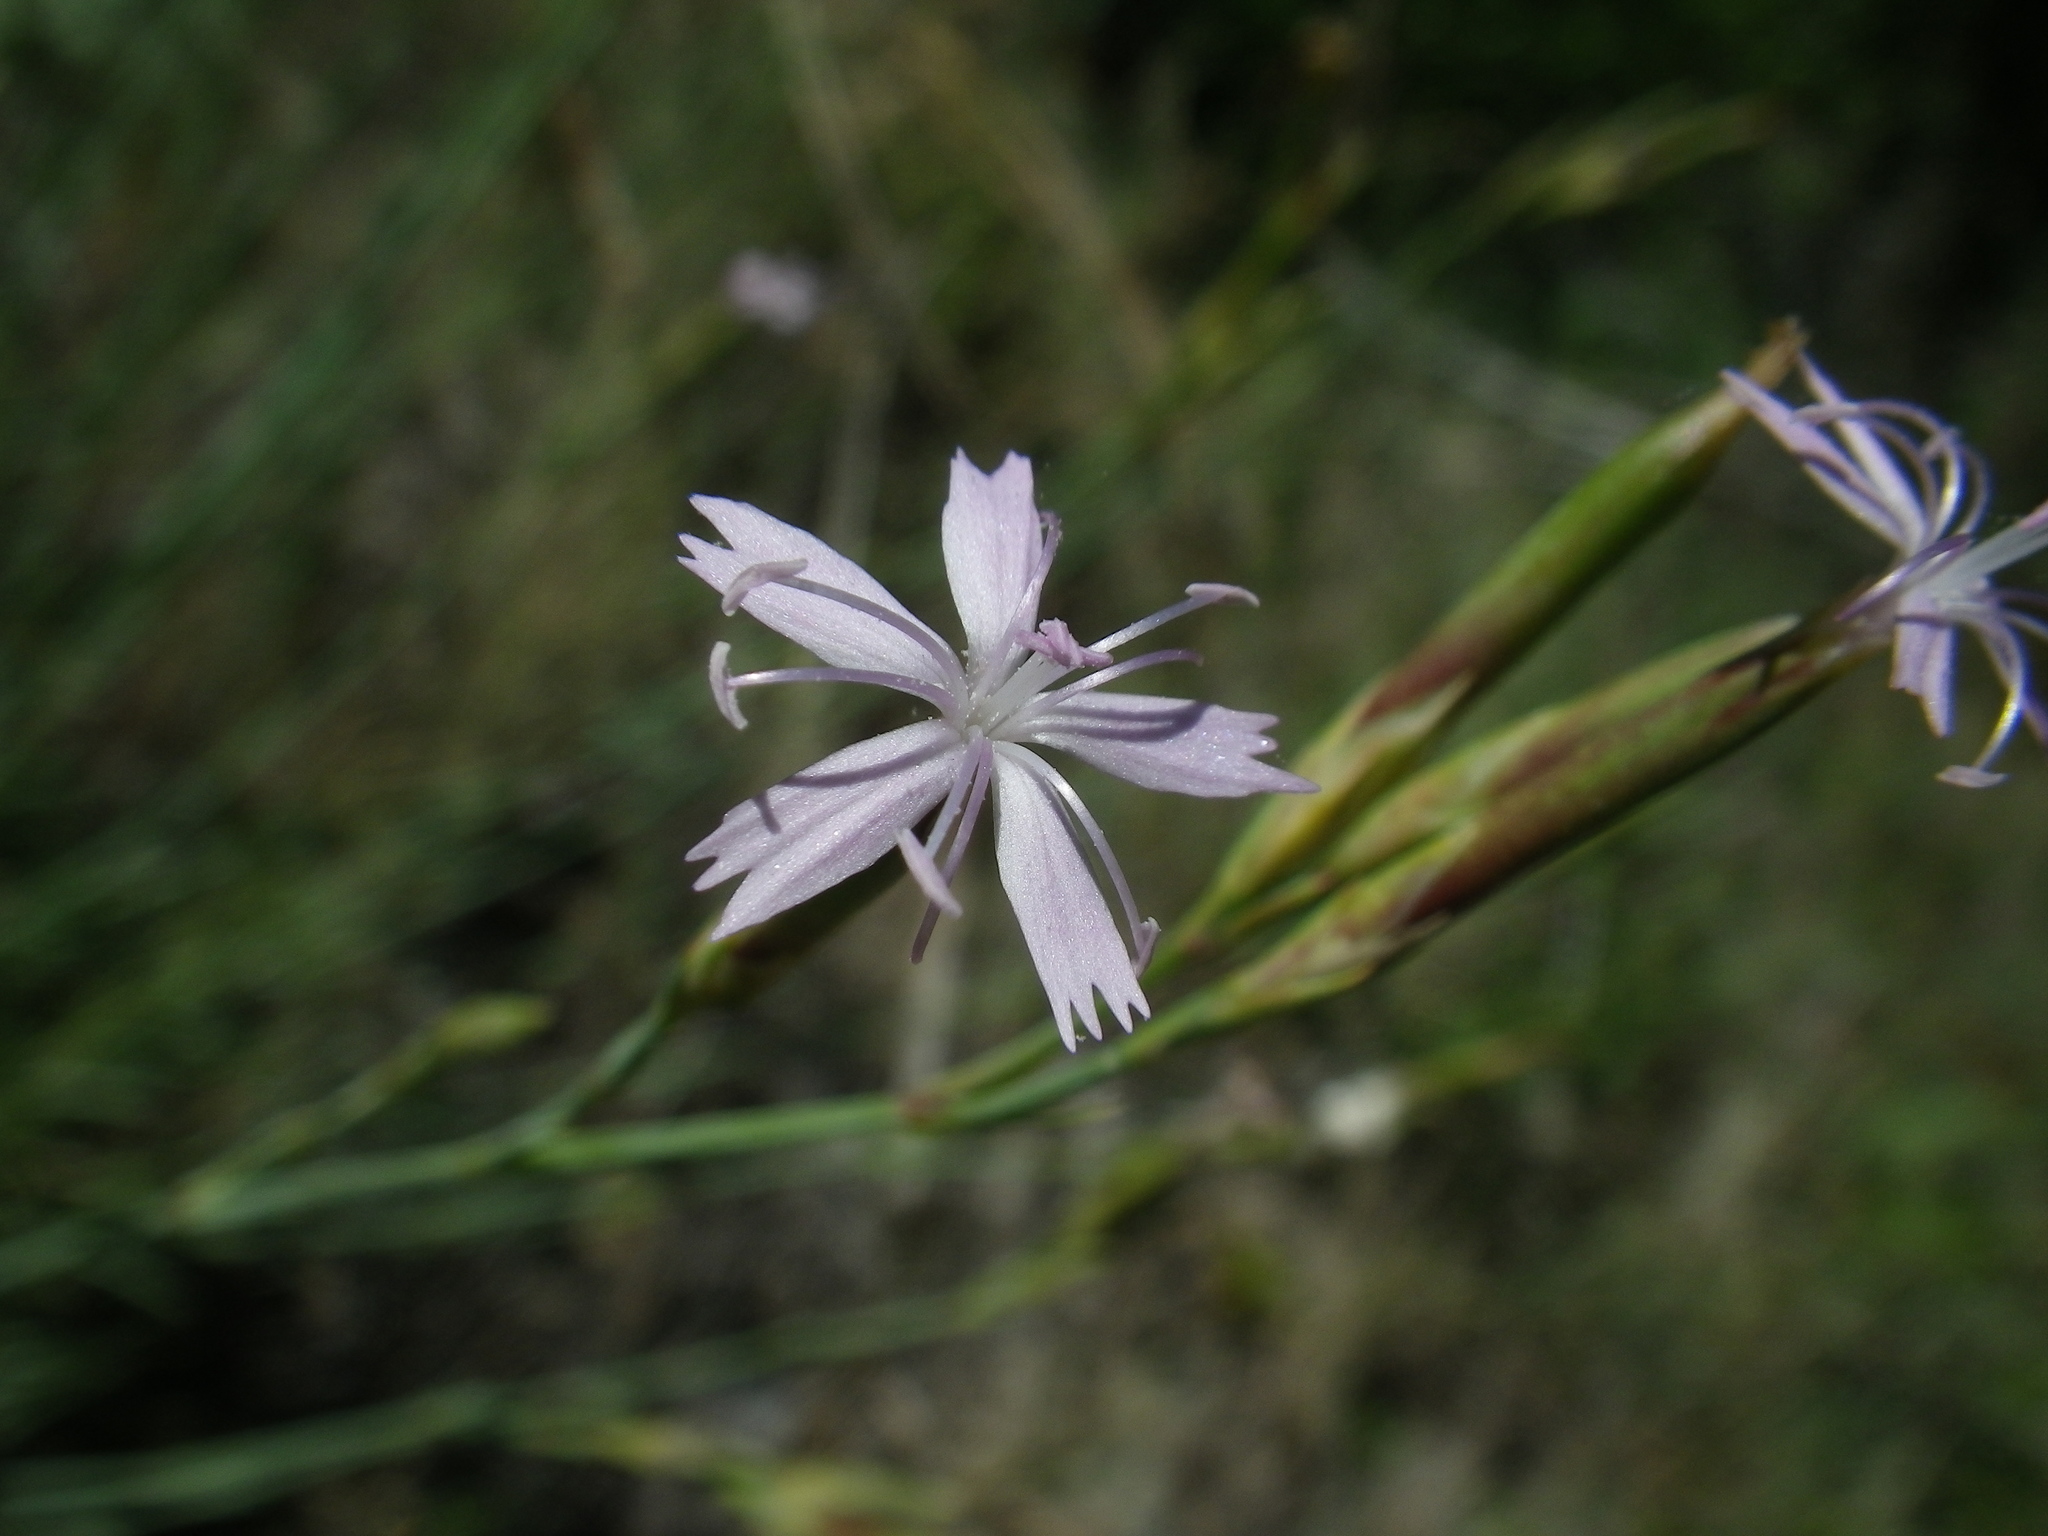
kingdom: Plantae
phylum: Tracheophyta
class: Magnoliopsida
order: Caryophyllales
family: Caryophyllaceae
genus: Dianthus
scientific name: Dianthus pyrenaicus
